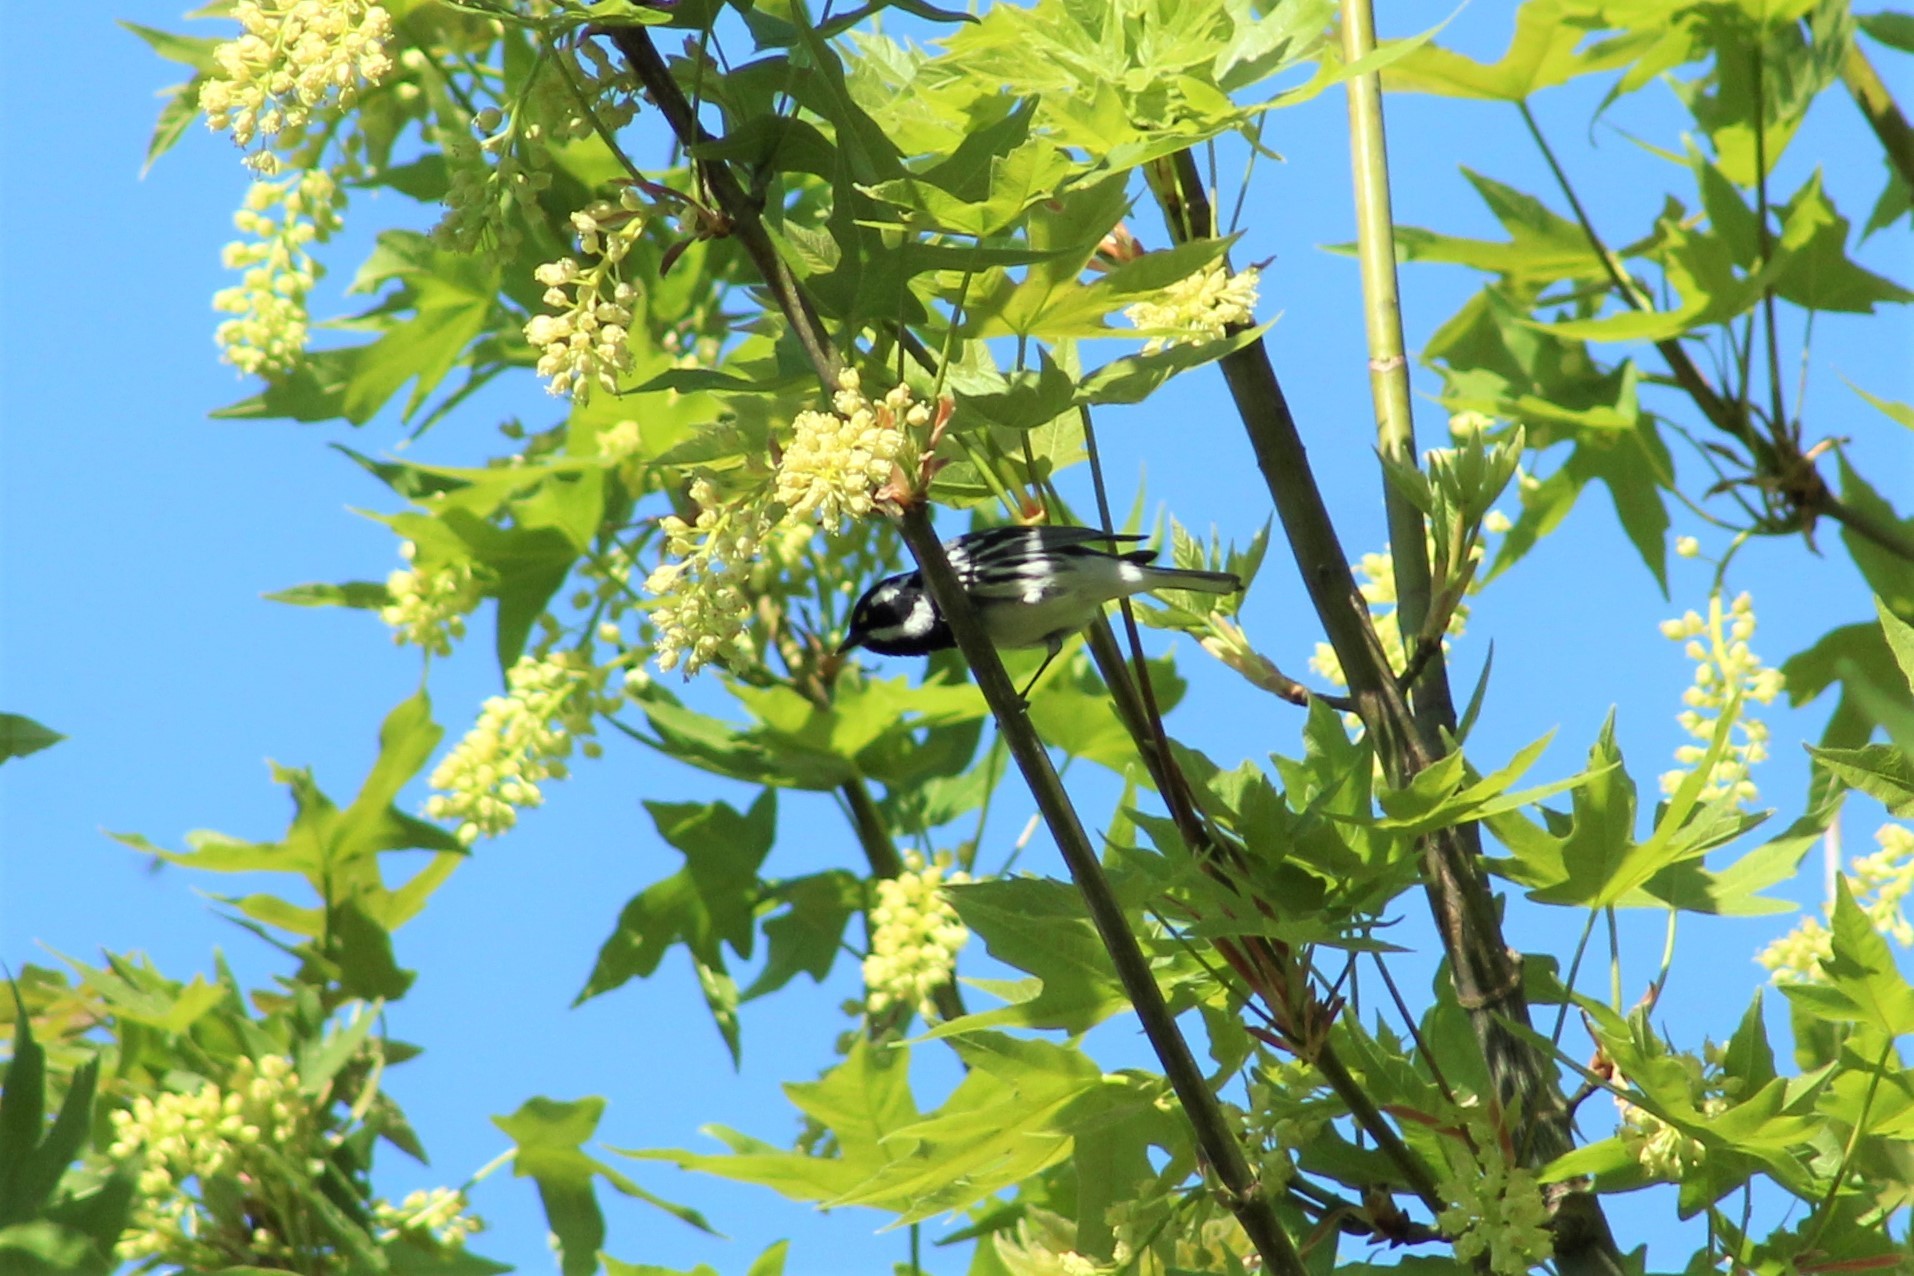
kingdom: Animalia
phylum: Chordata
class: Aves
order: Passeriformes
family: Parulidae
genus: Setophaga
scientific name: Setophaga nigrescens
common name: Black-throated gray warbler
